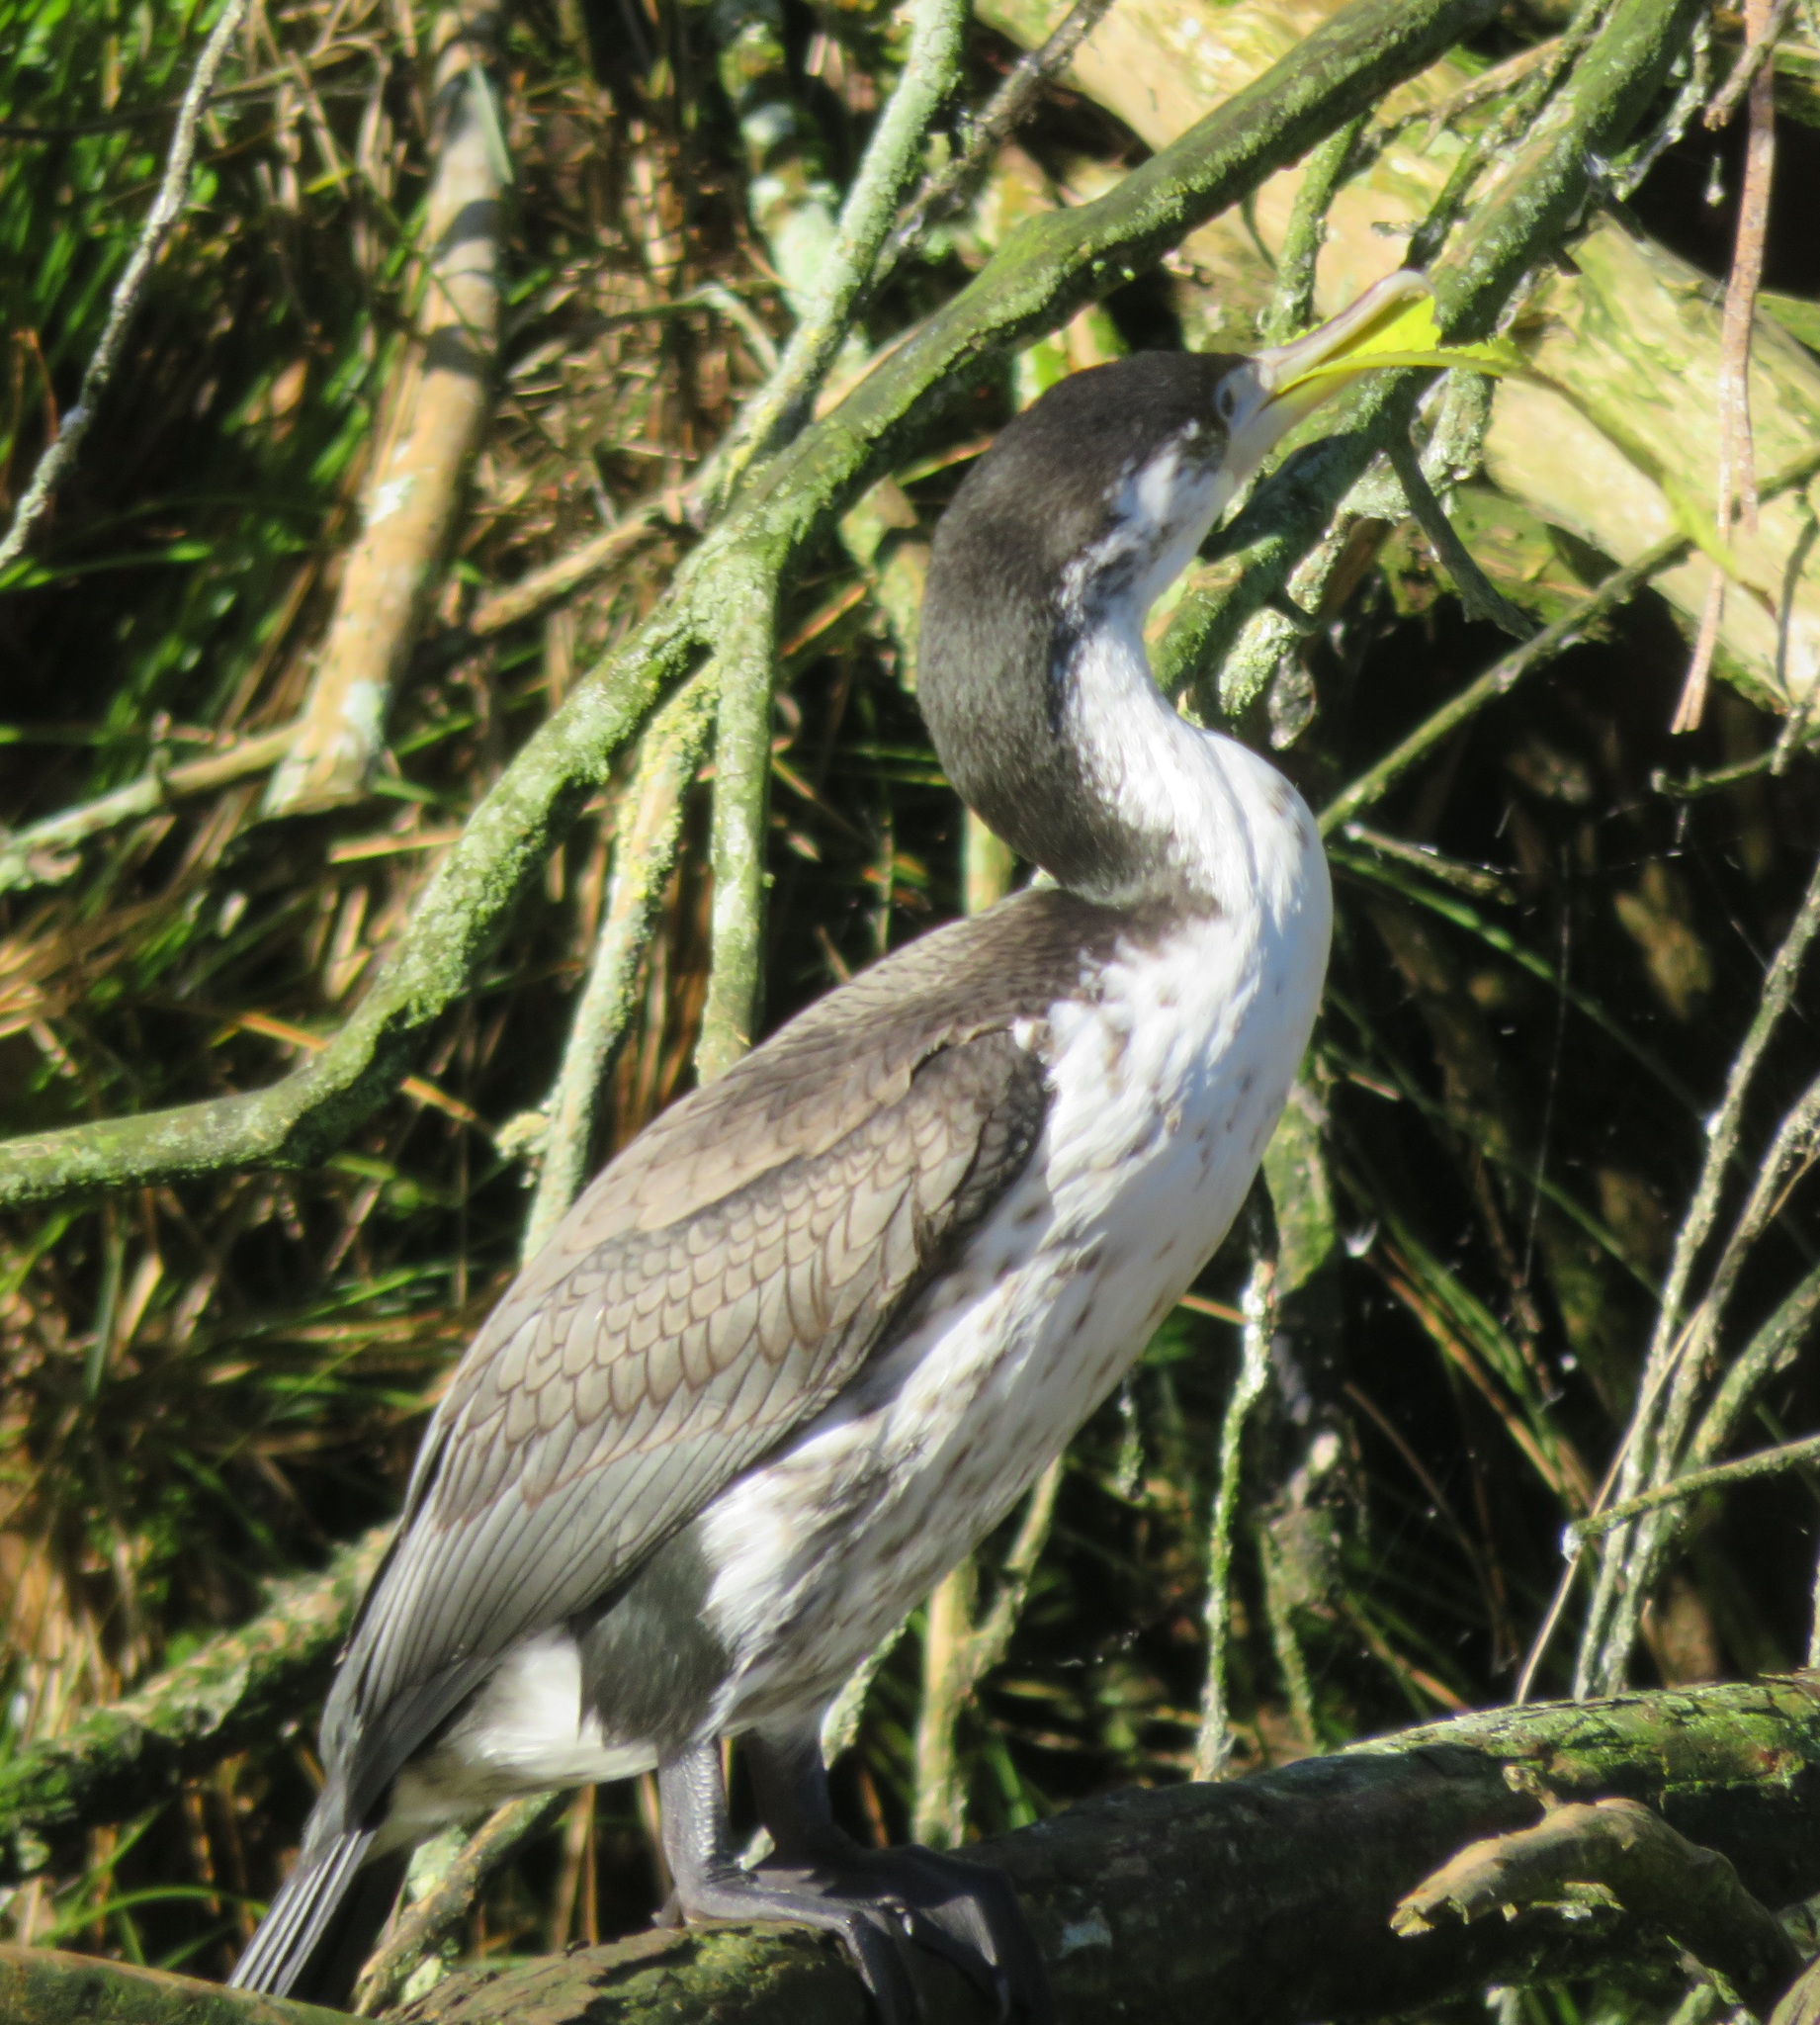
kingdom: Animalia
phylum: Chordata
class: Aves
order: Suliformes
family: Phalacrocoracidae
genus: Phalacrocorax
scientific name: Phalacrocorax varius
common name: Pied cormorant
